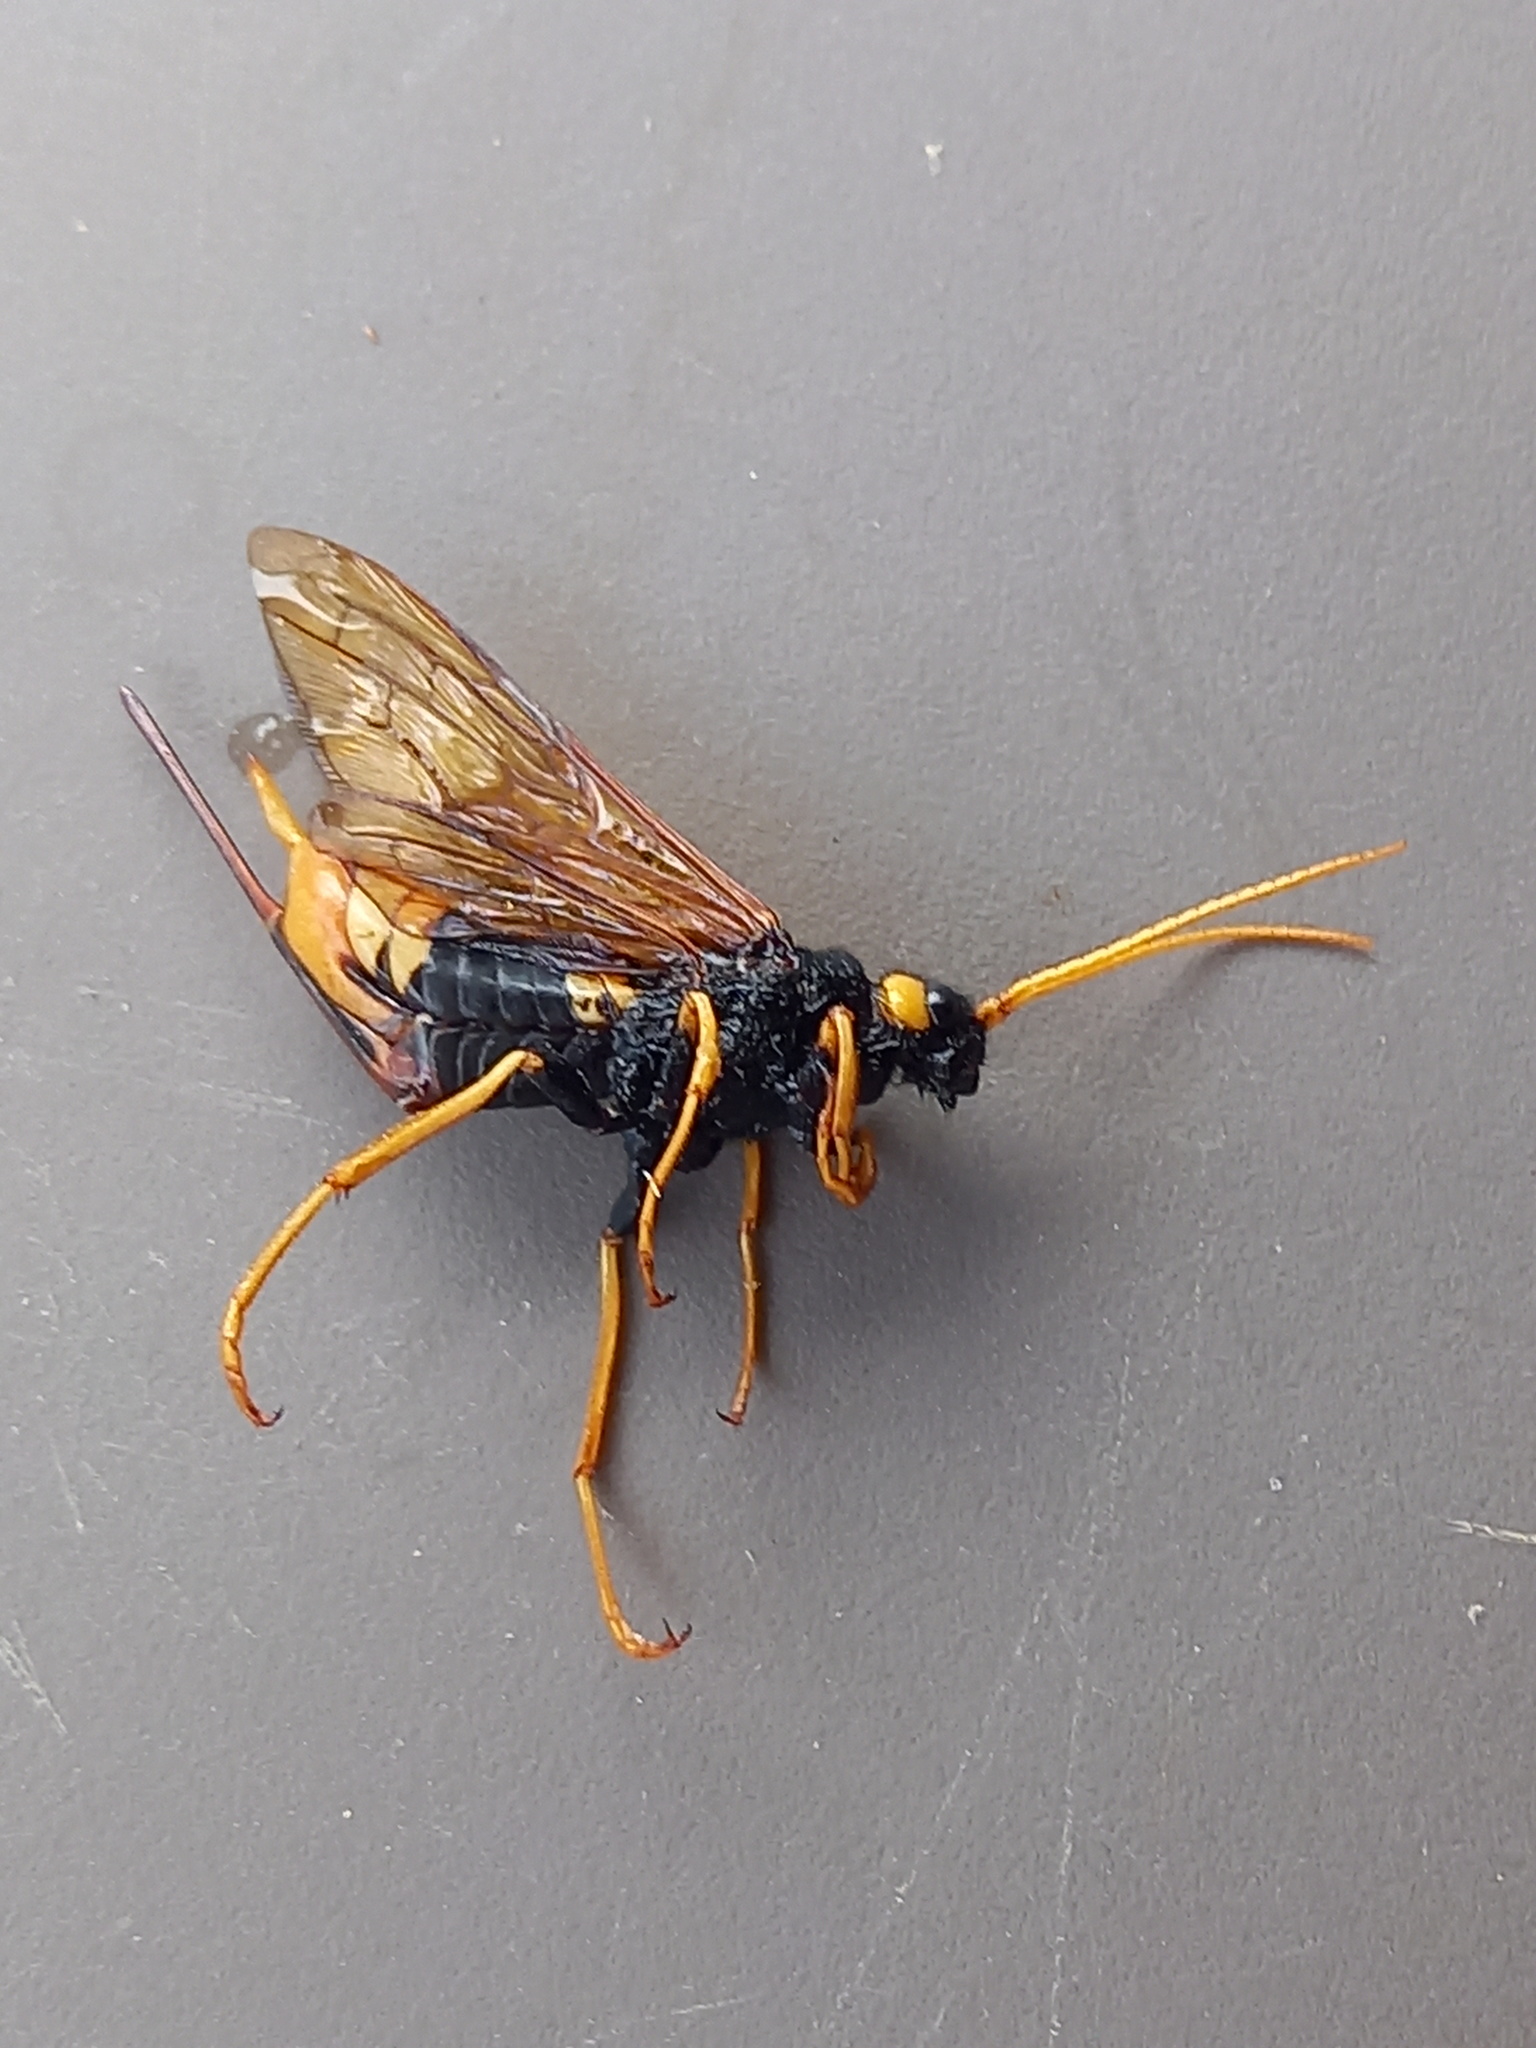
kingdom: Animalia
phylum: Arthropoda
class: Insecta
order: Hymenoptera
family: Siricidae
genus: Urocerus
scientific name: Urocerus gigas
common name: Giant woodwasp
